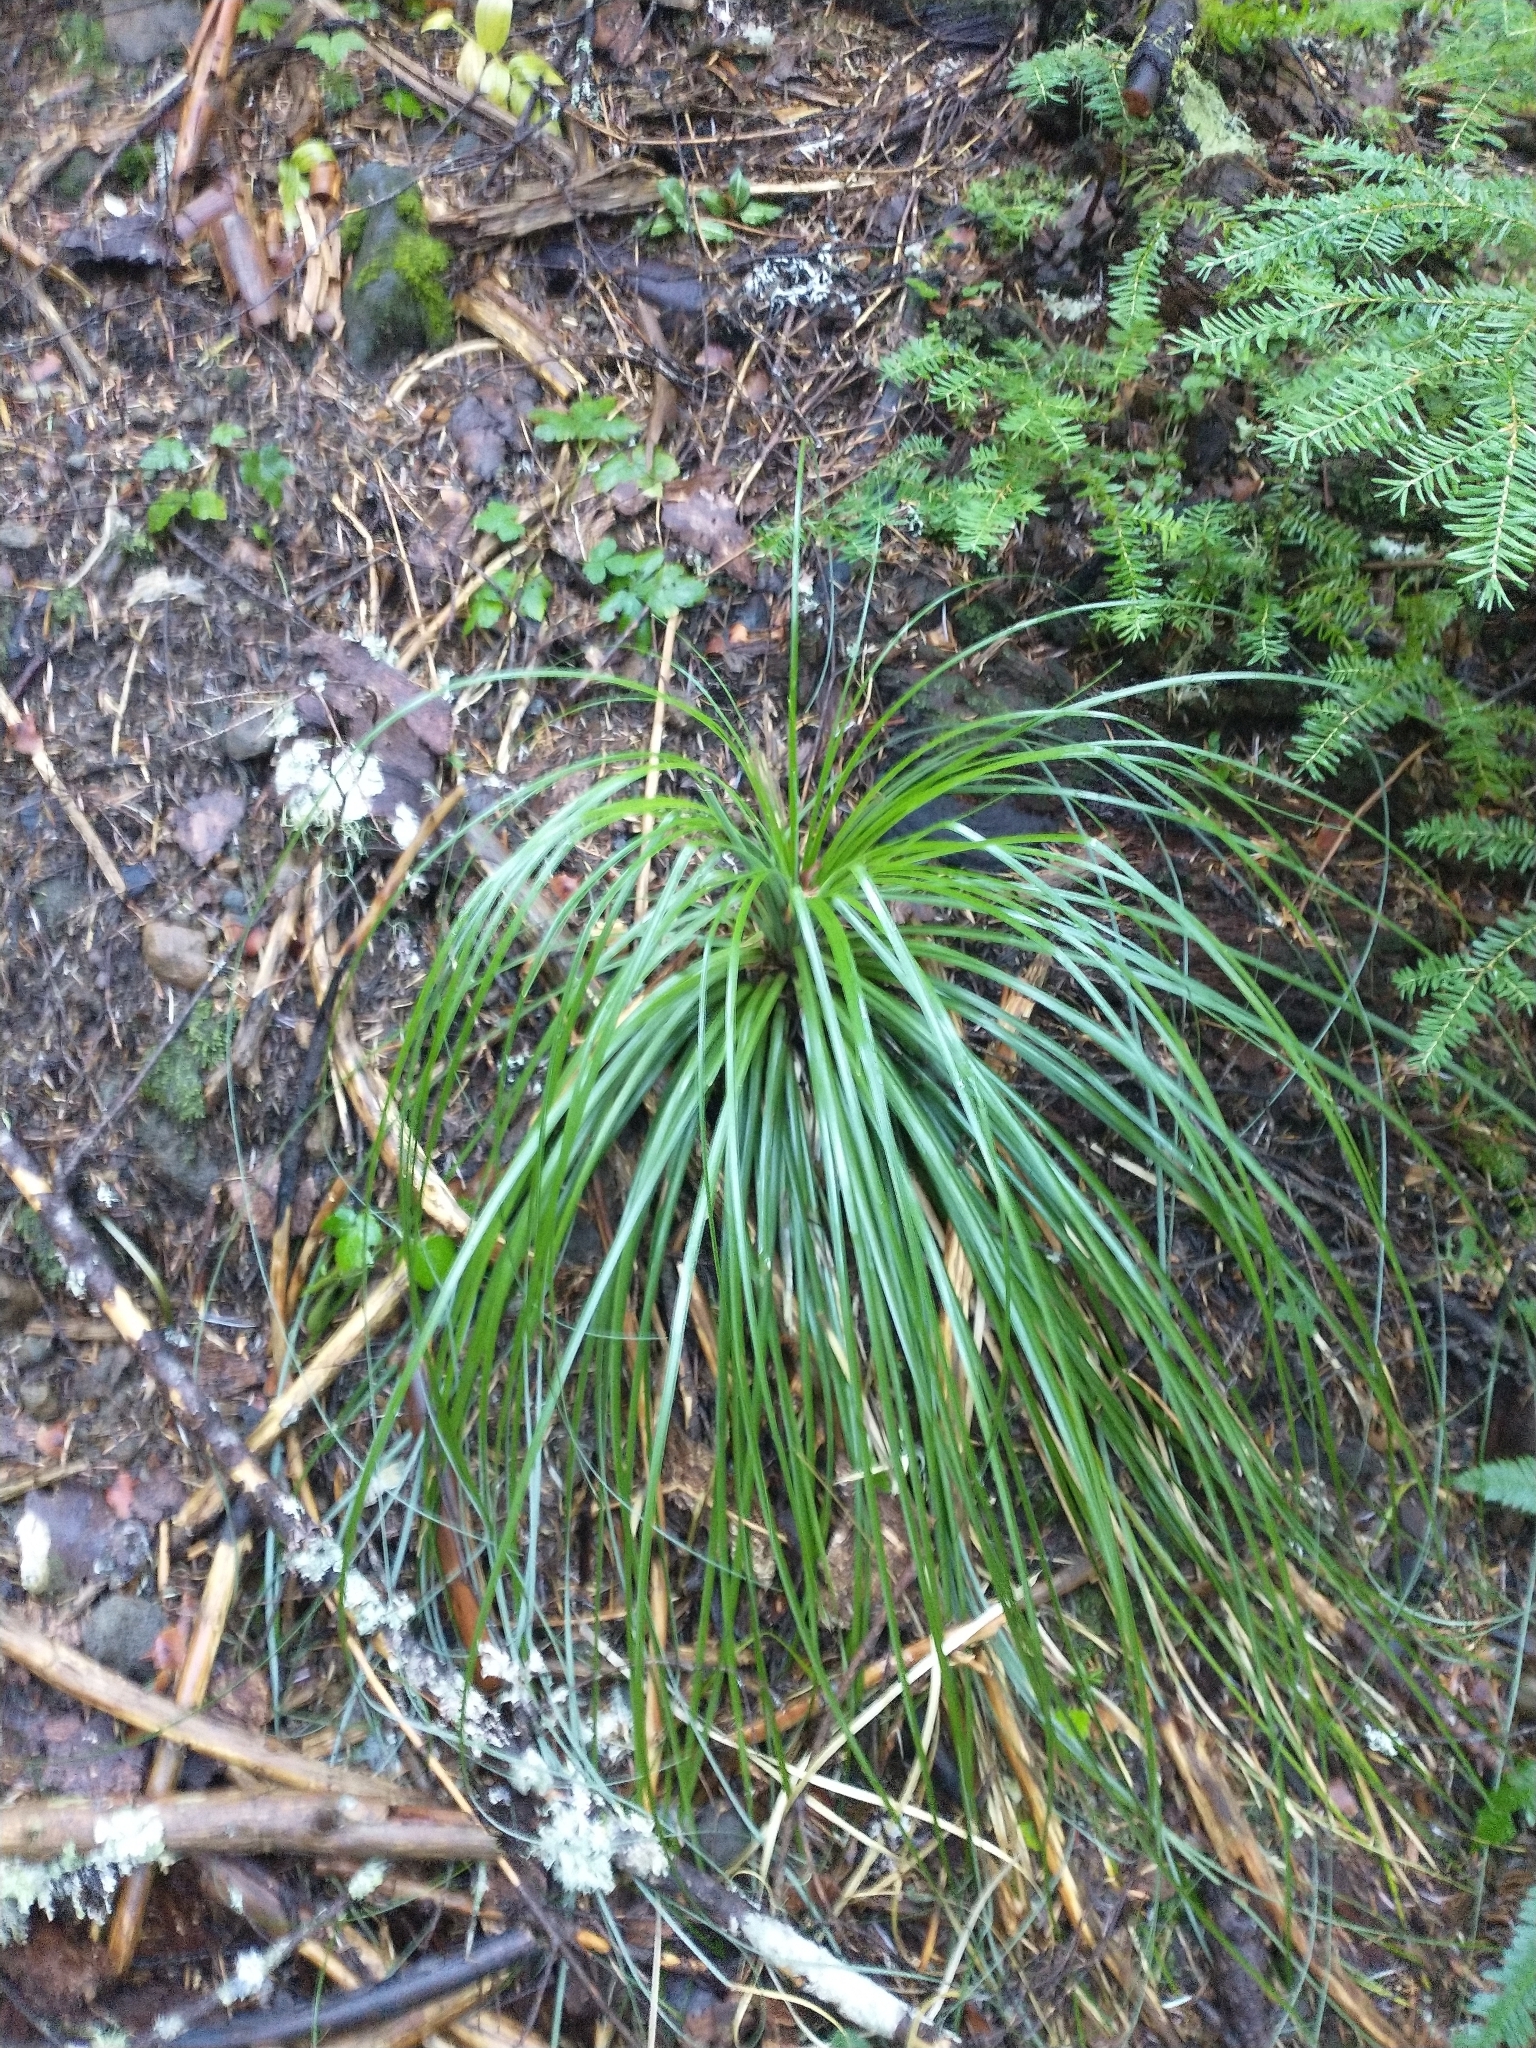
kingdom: Plantae
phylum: Tracheophyta
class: Liliopsida
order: Liliales
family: Melanthiaceae
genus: Xerophyllum
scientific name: Xerophyllum tenax
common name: Bear-grass
